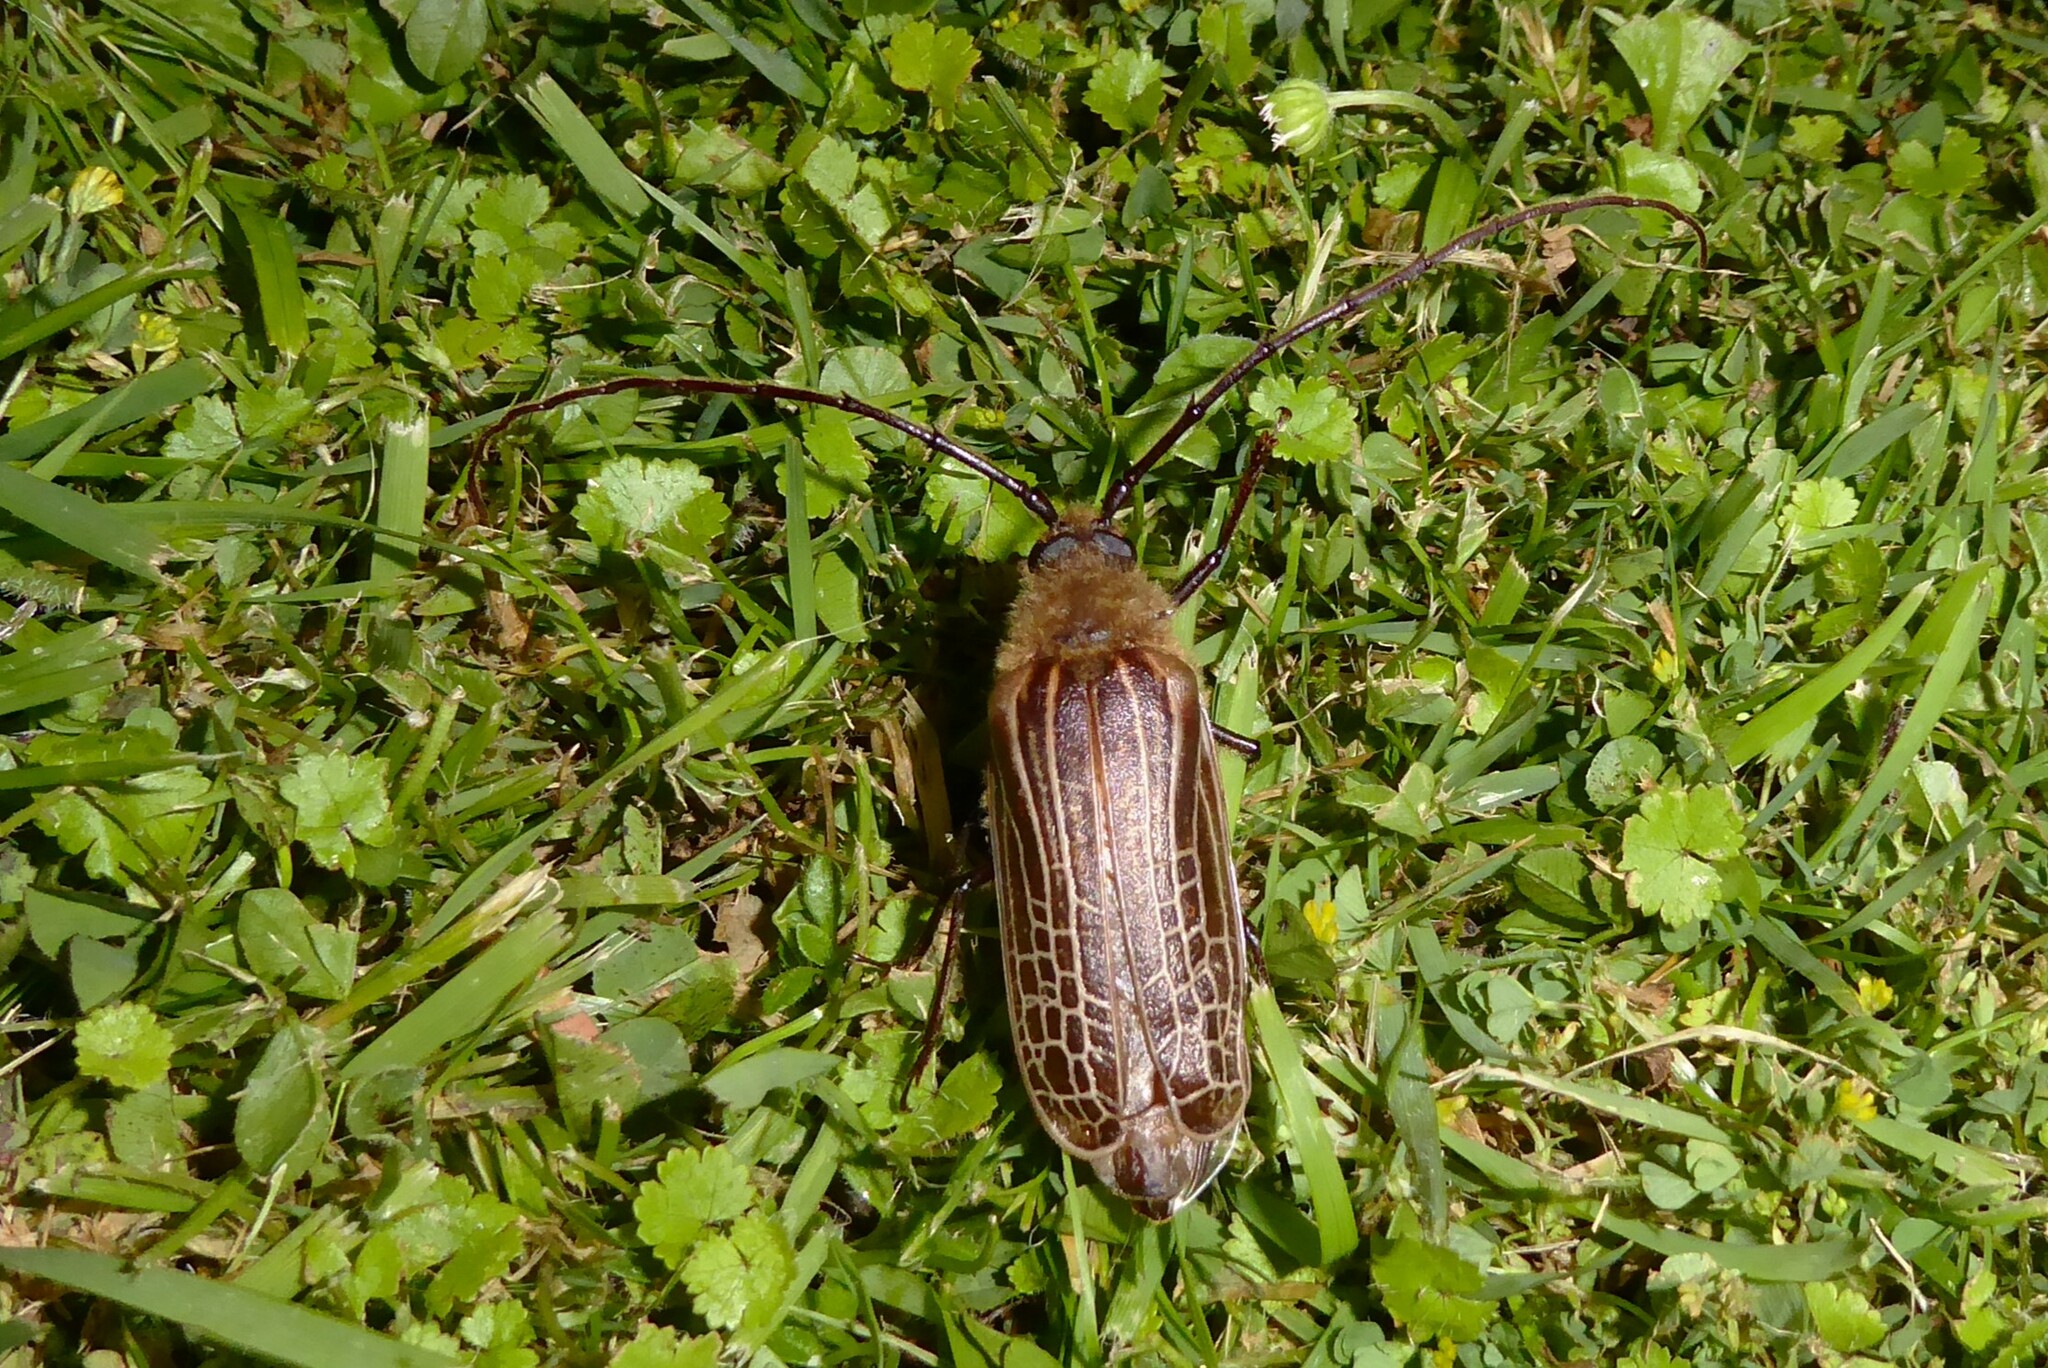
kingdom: Animalia
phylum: Arthropoda
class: Insecta
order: Coleoptera
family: Cerambycidae
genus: Prionoplus
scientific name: Prionoplus reticularis
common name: Huhu beetle
